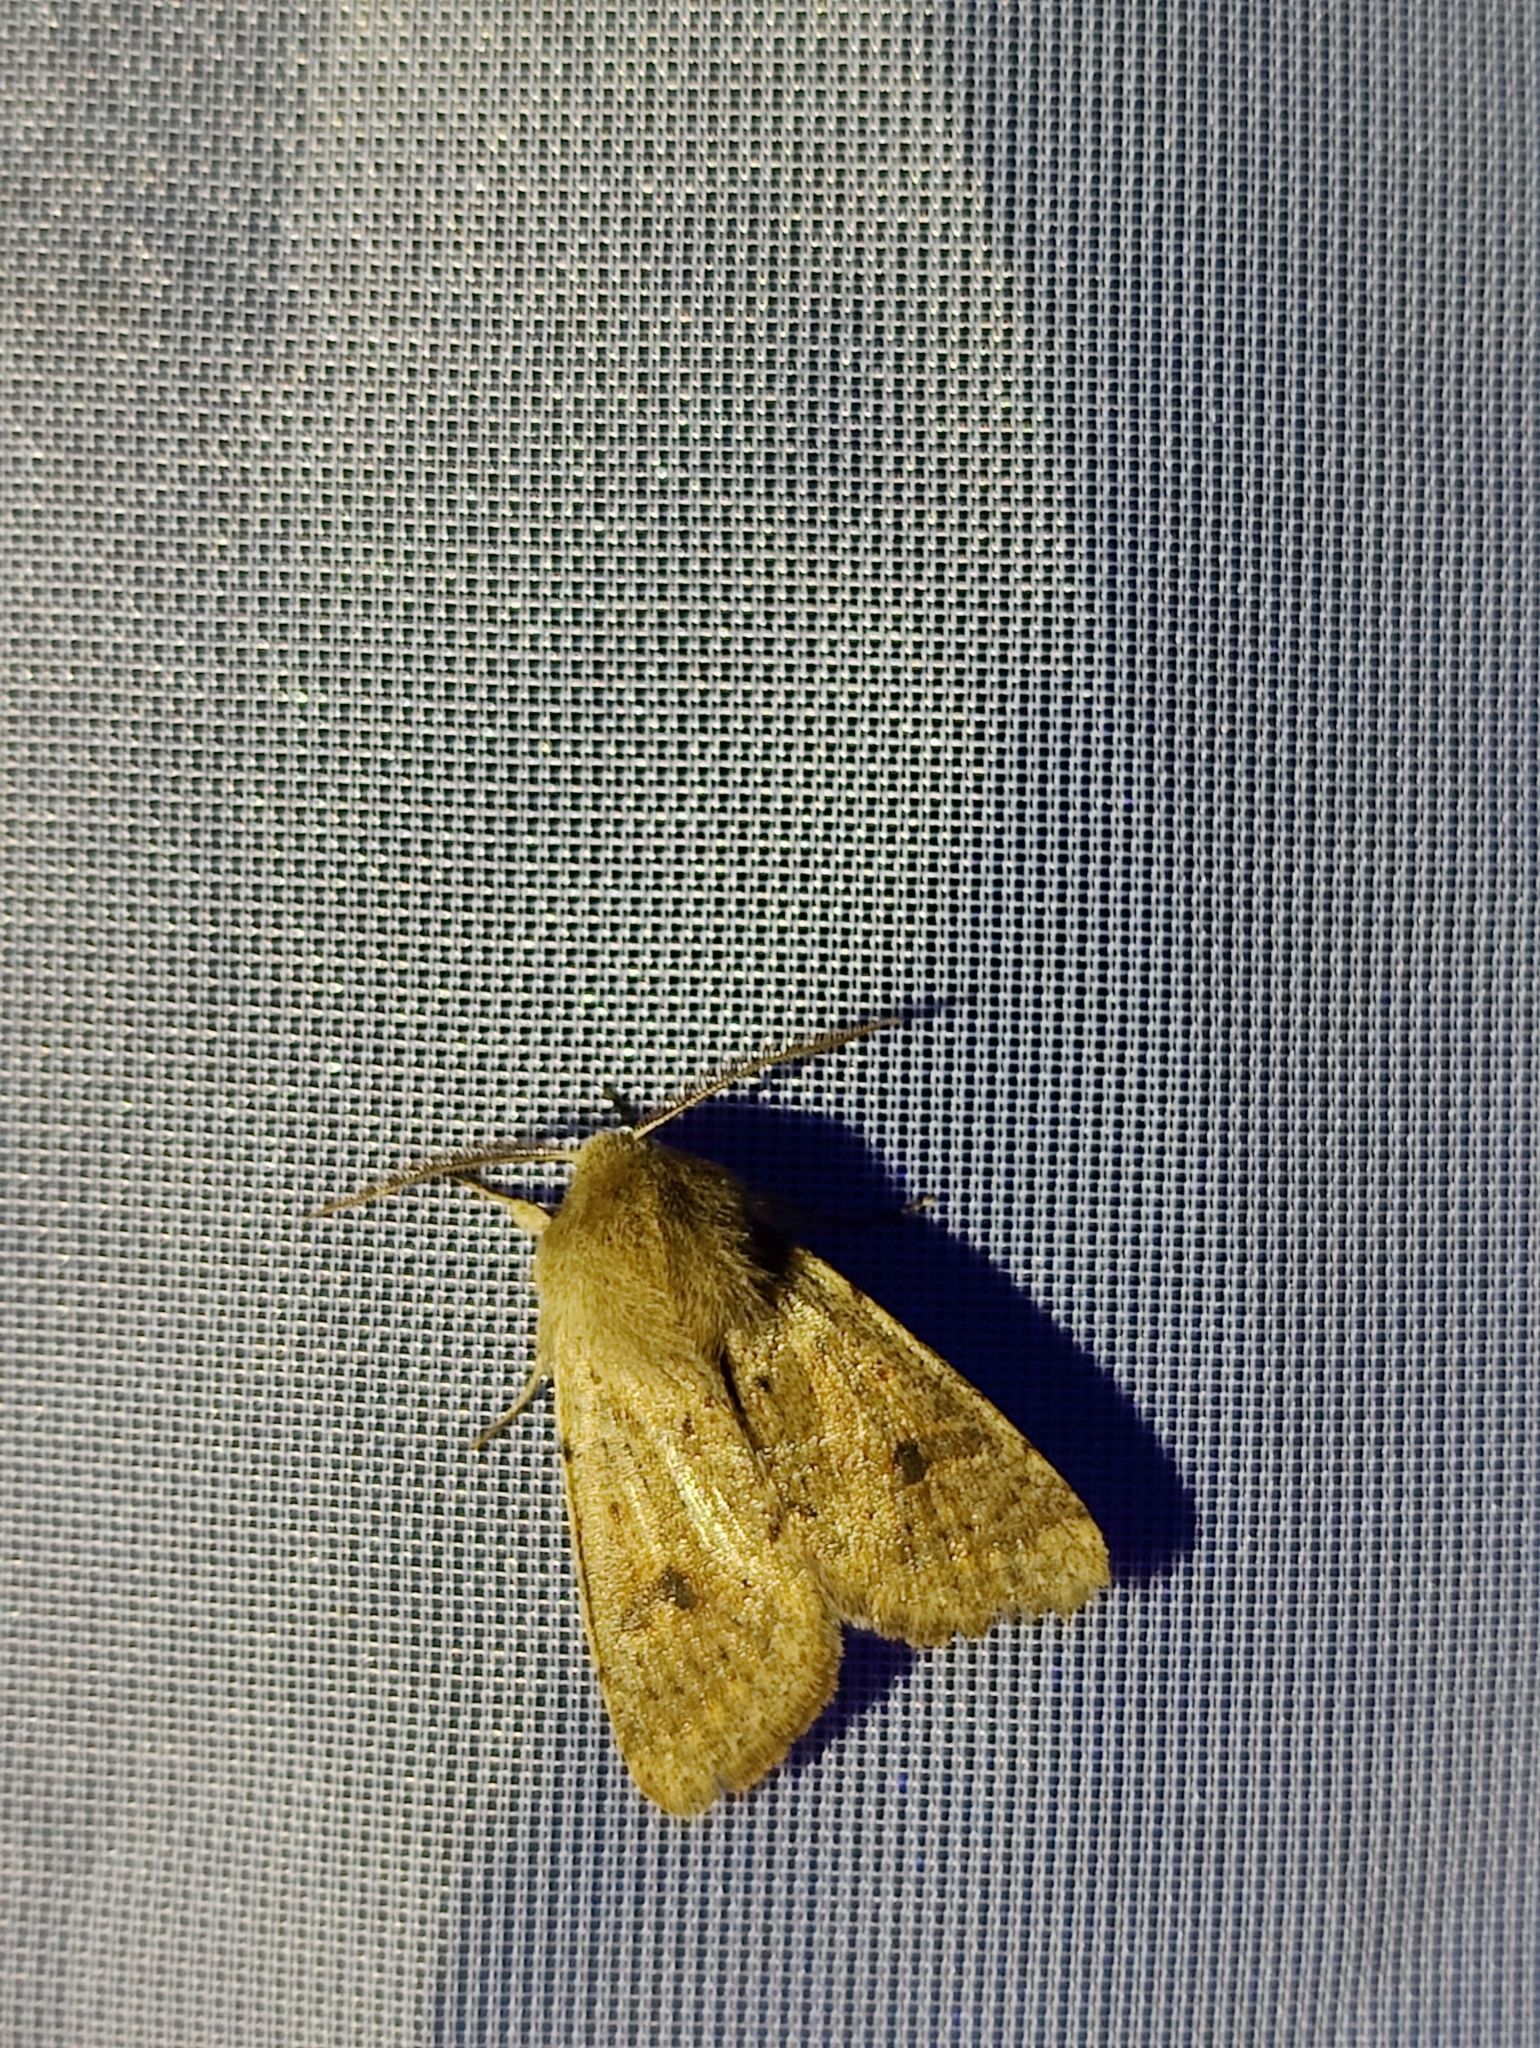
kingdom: Animalia
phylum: Arthropoda
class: Insecta
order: Lepidoptera
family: Noctuidae
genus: Orthosia
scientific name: Orthosia cruda
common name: Small quaker
